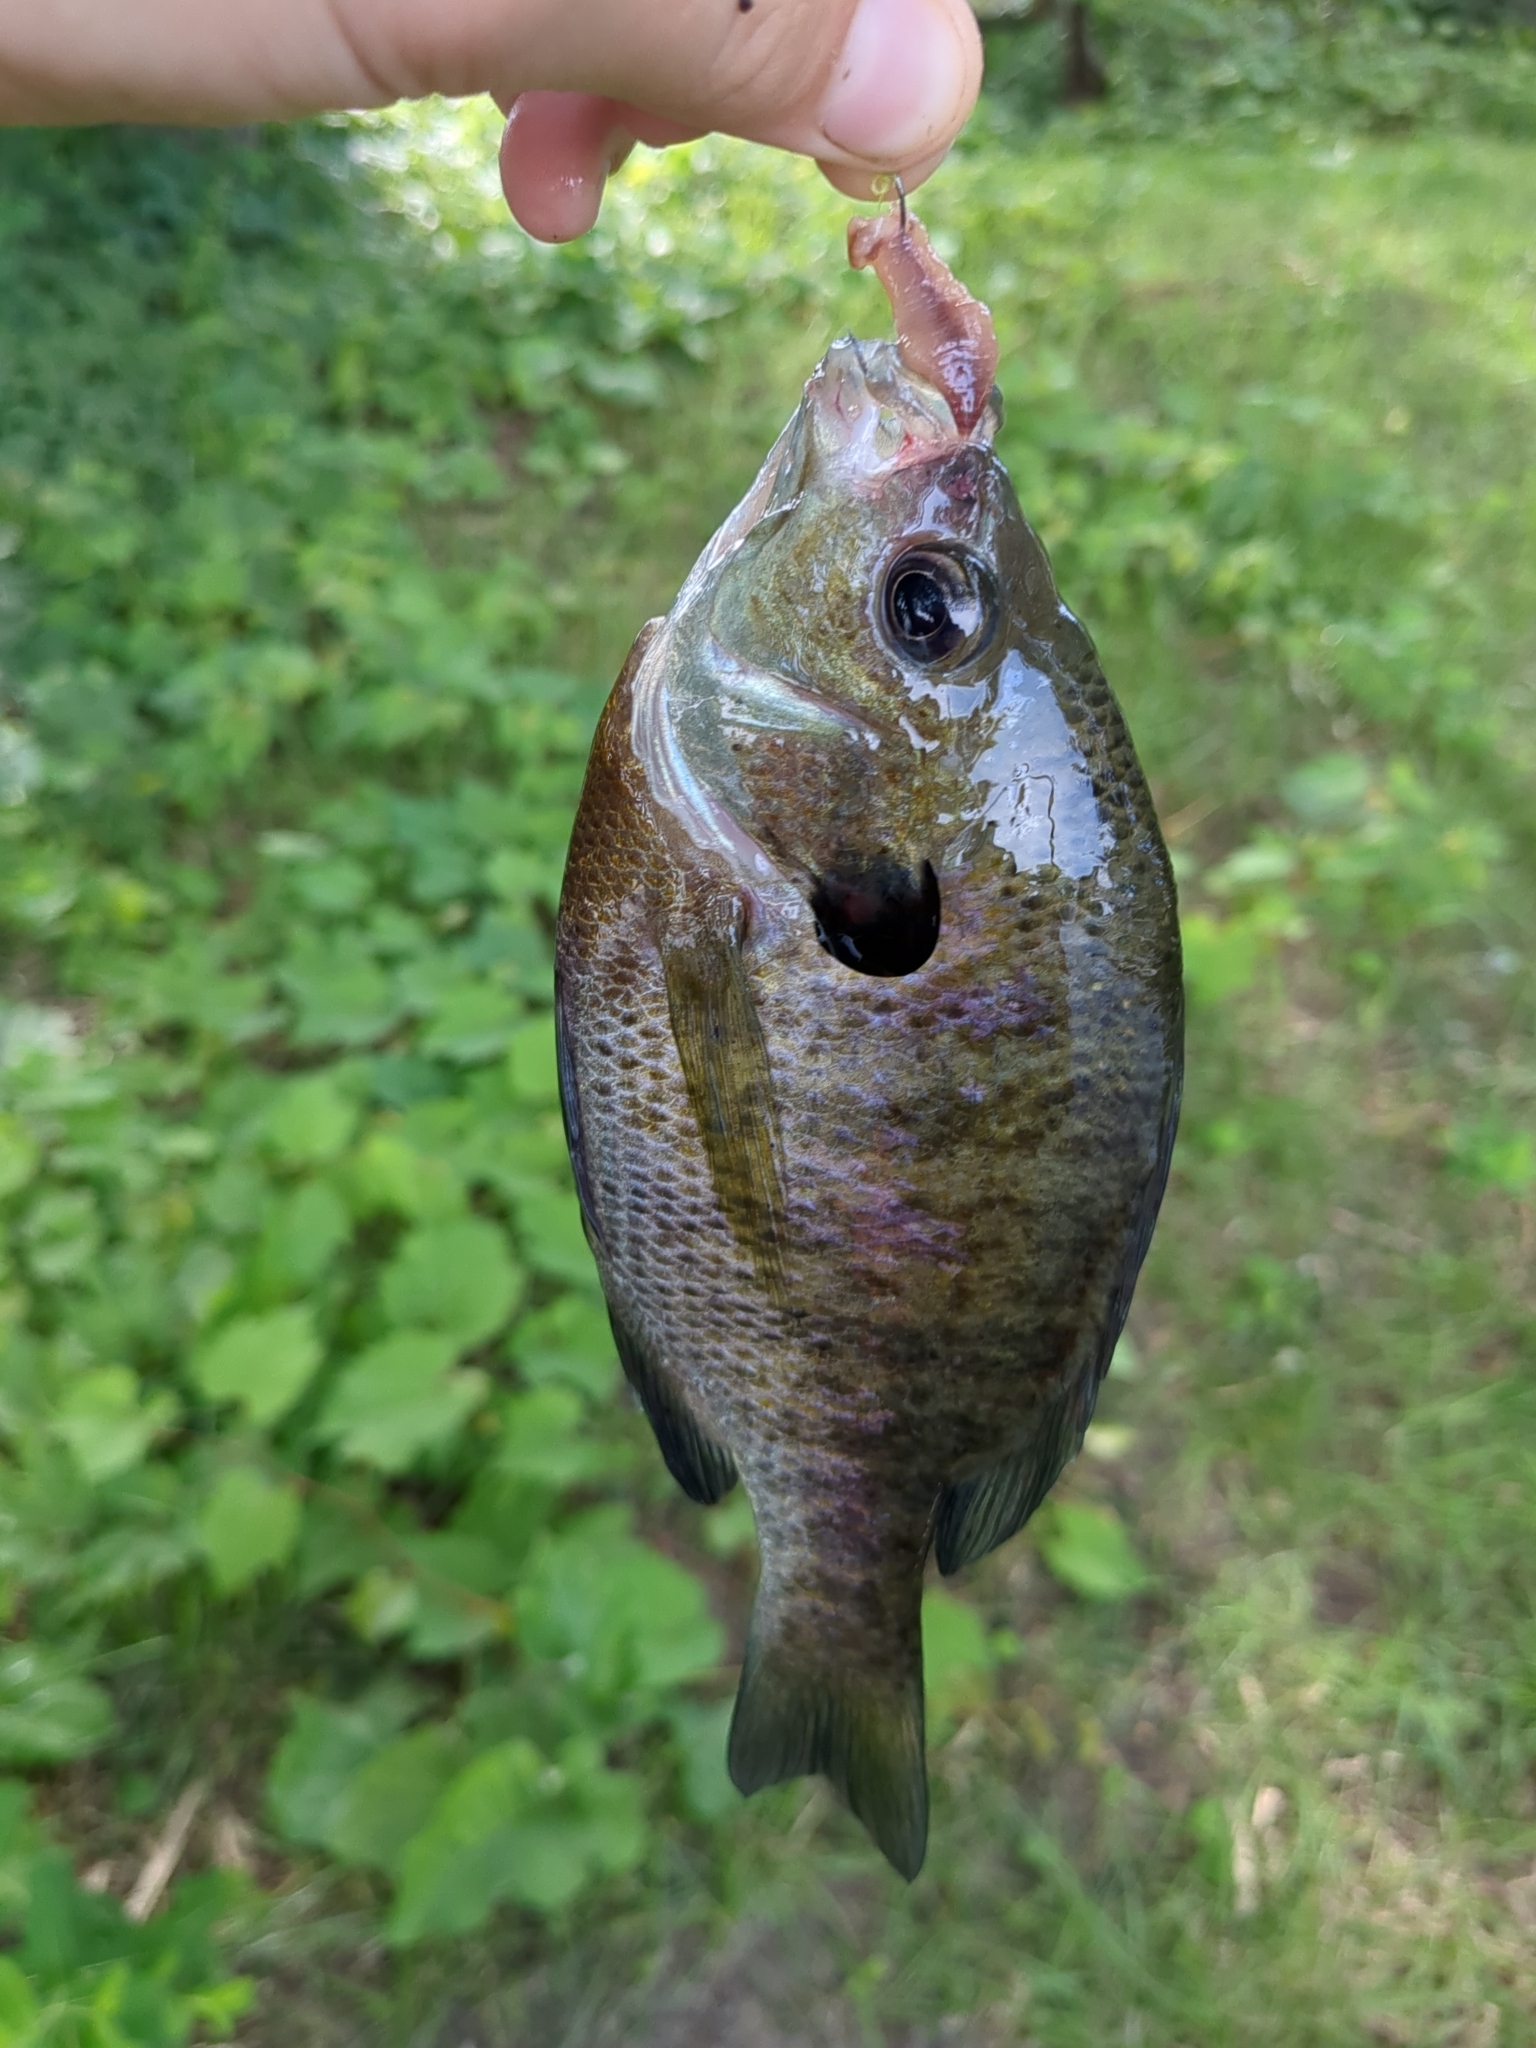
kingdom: Animalia
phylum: Chordata
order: Perciformes
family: Centrarchidae
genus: Lepomis
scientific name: Lepomis macrochirus
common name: Bluegill
